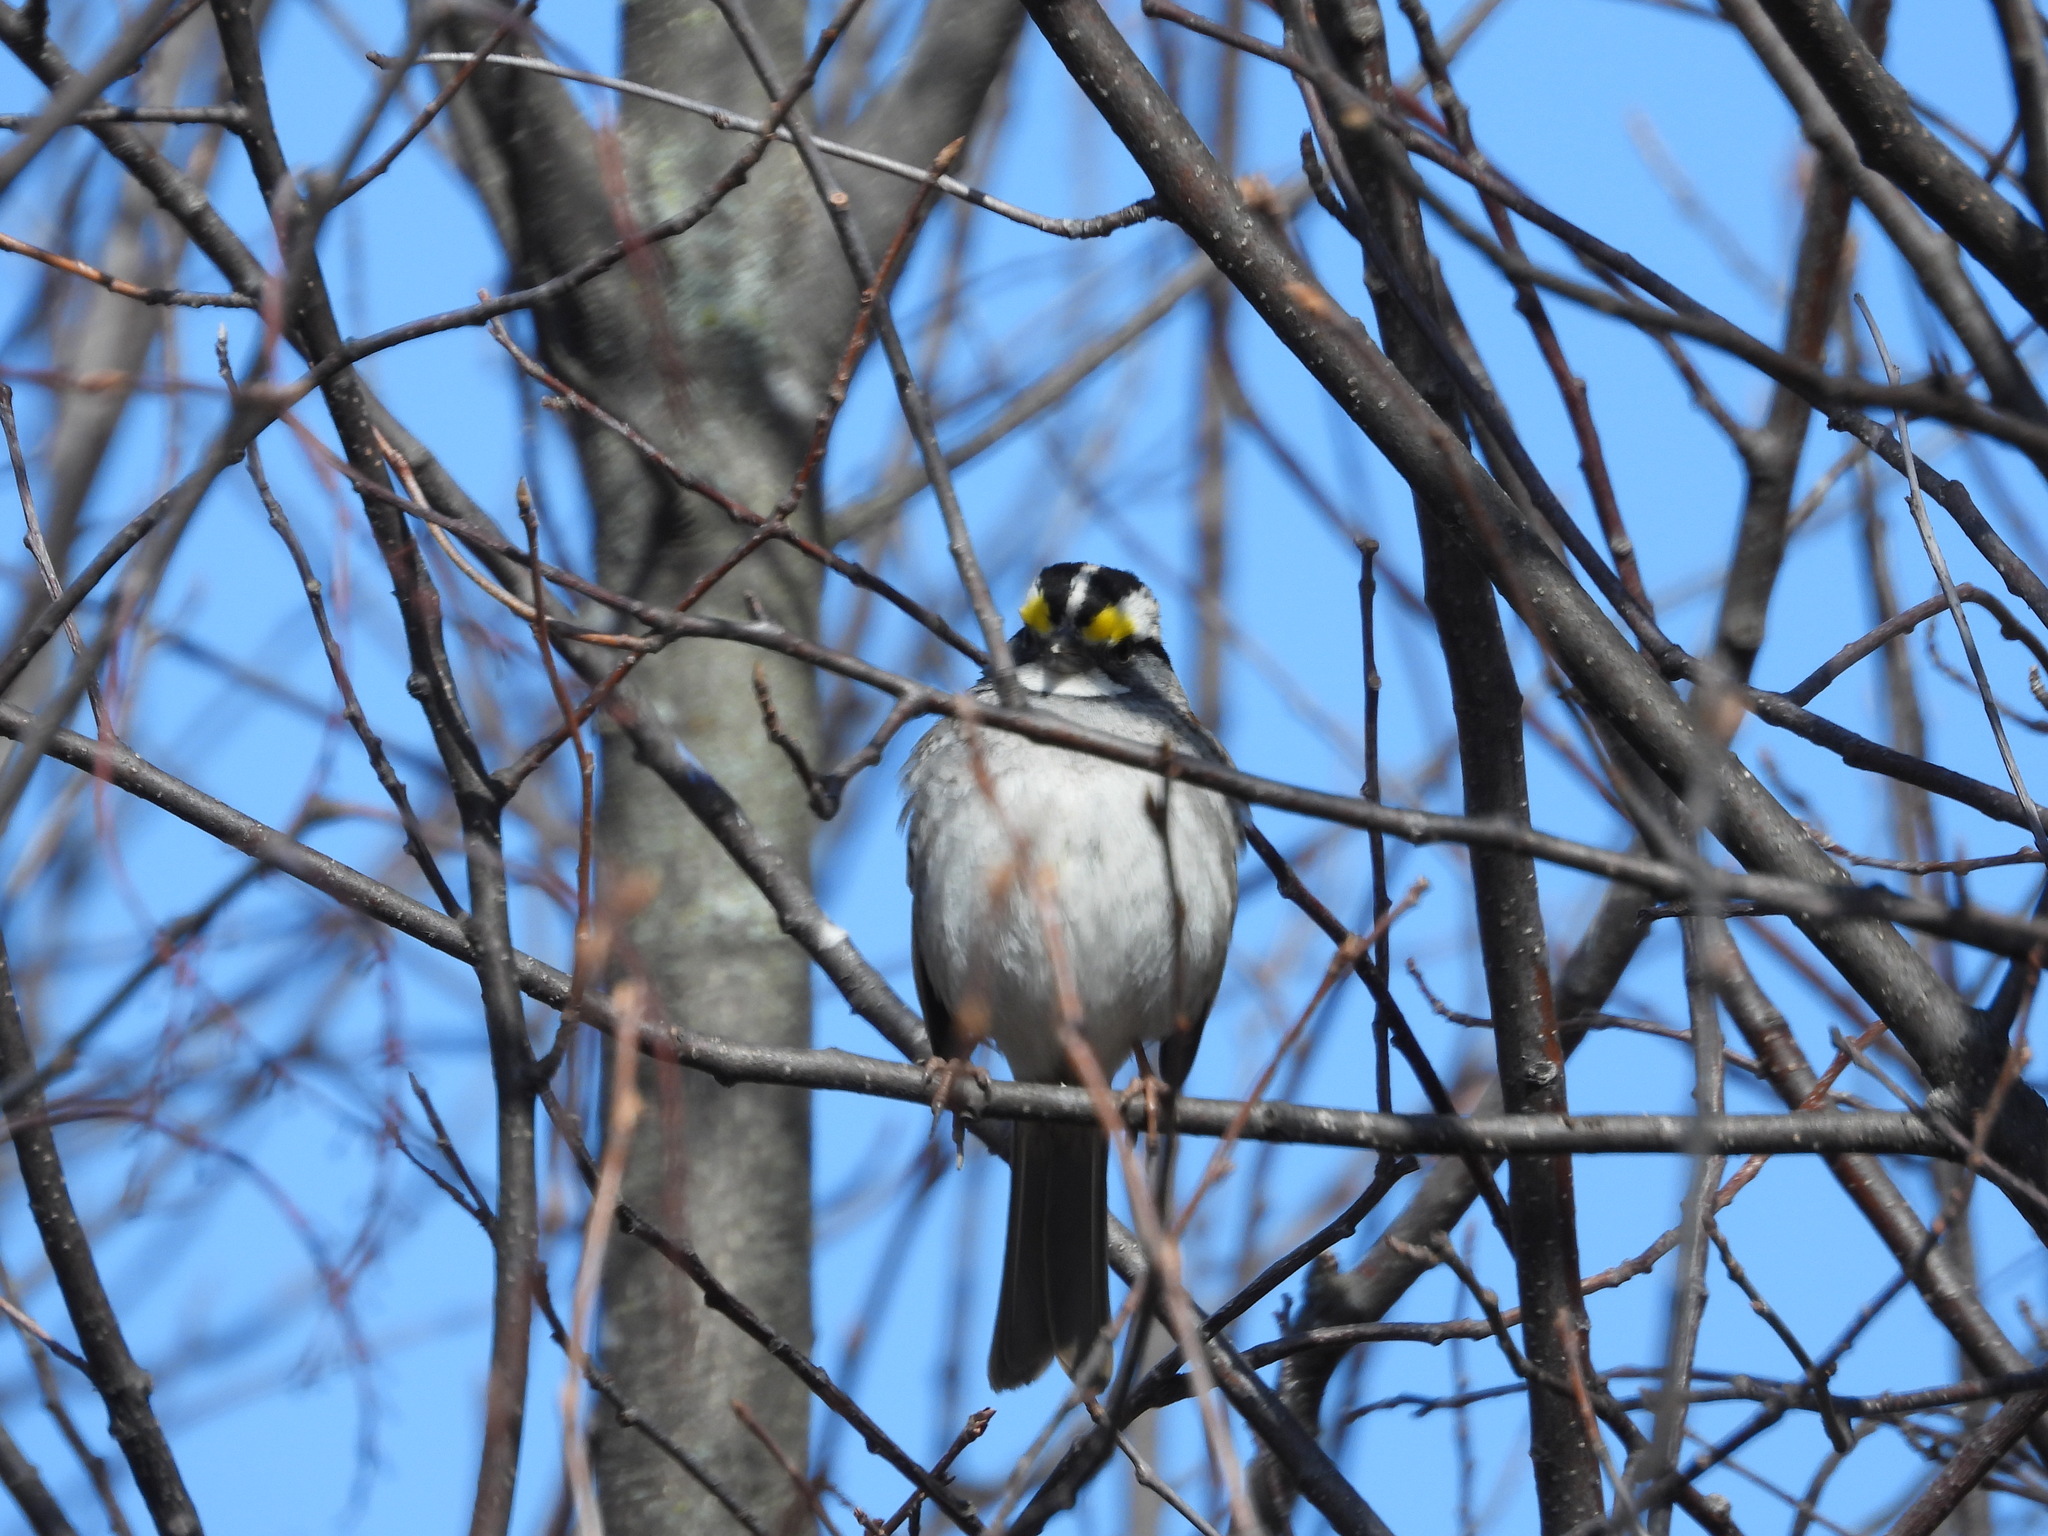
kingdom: Animalia
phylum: Chordata
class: Aves
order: Passeriformes
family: Passerellidae
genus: Zonotrichia
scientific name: Zonotrichia albicollis
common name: White-throated sparrow
